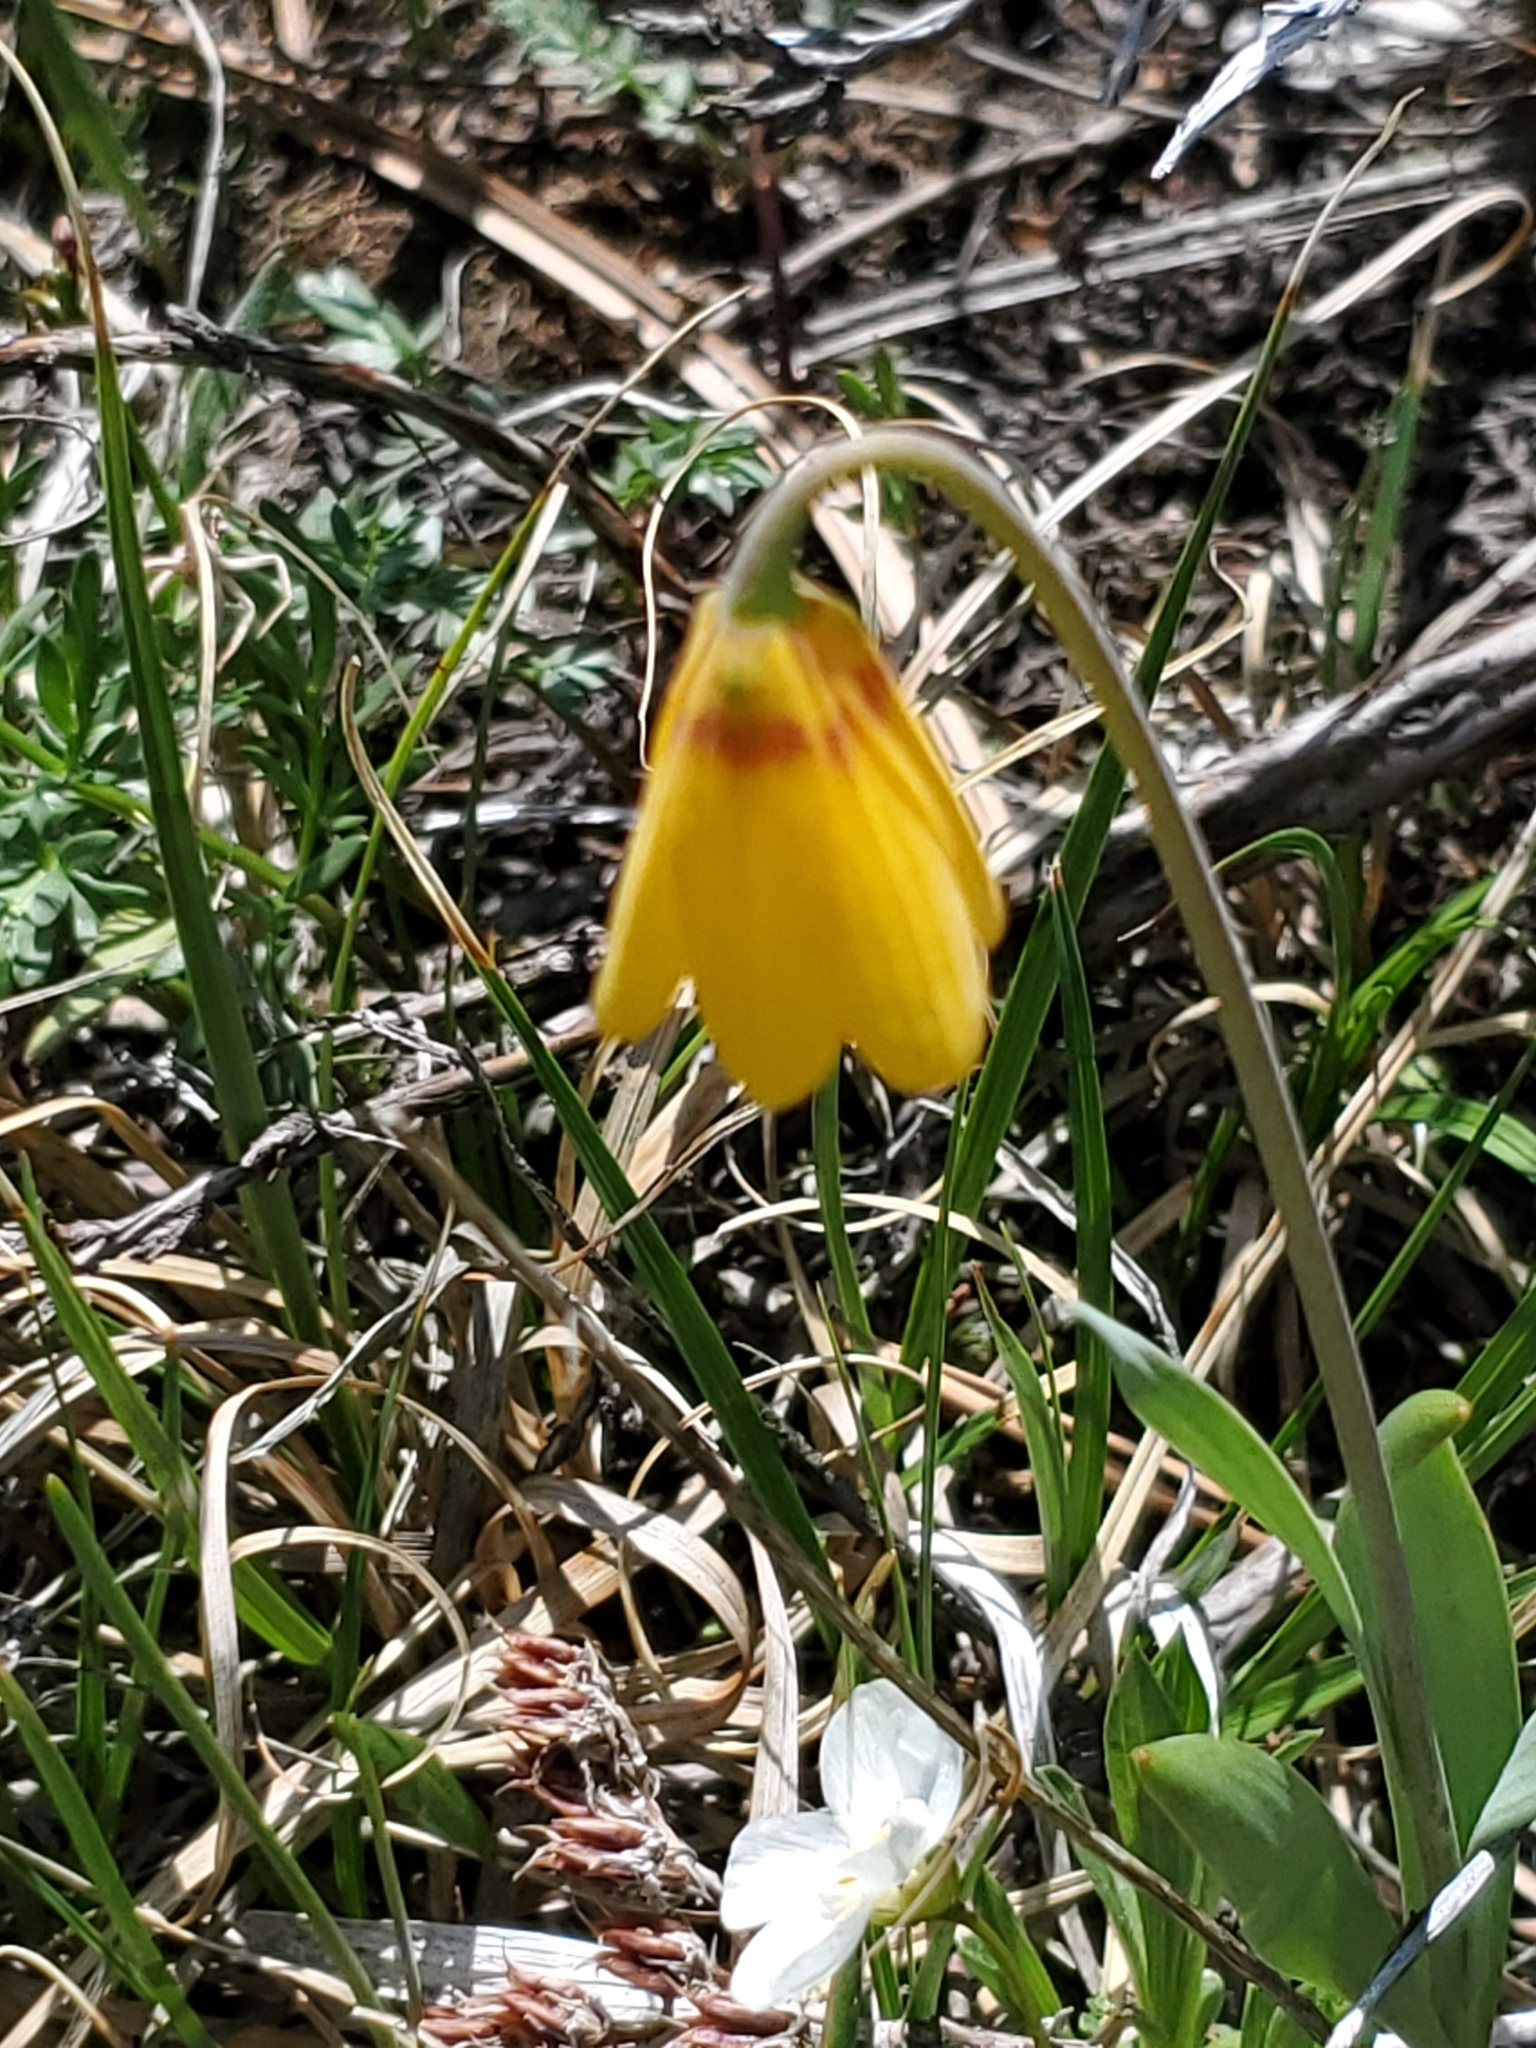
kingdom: Plantae
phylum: Tracheophyta
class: Liliopsida
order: Liliales
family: Liliaceae
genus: Fritillaria
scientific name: Fritillaria pudica
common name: Yellow fritillary
